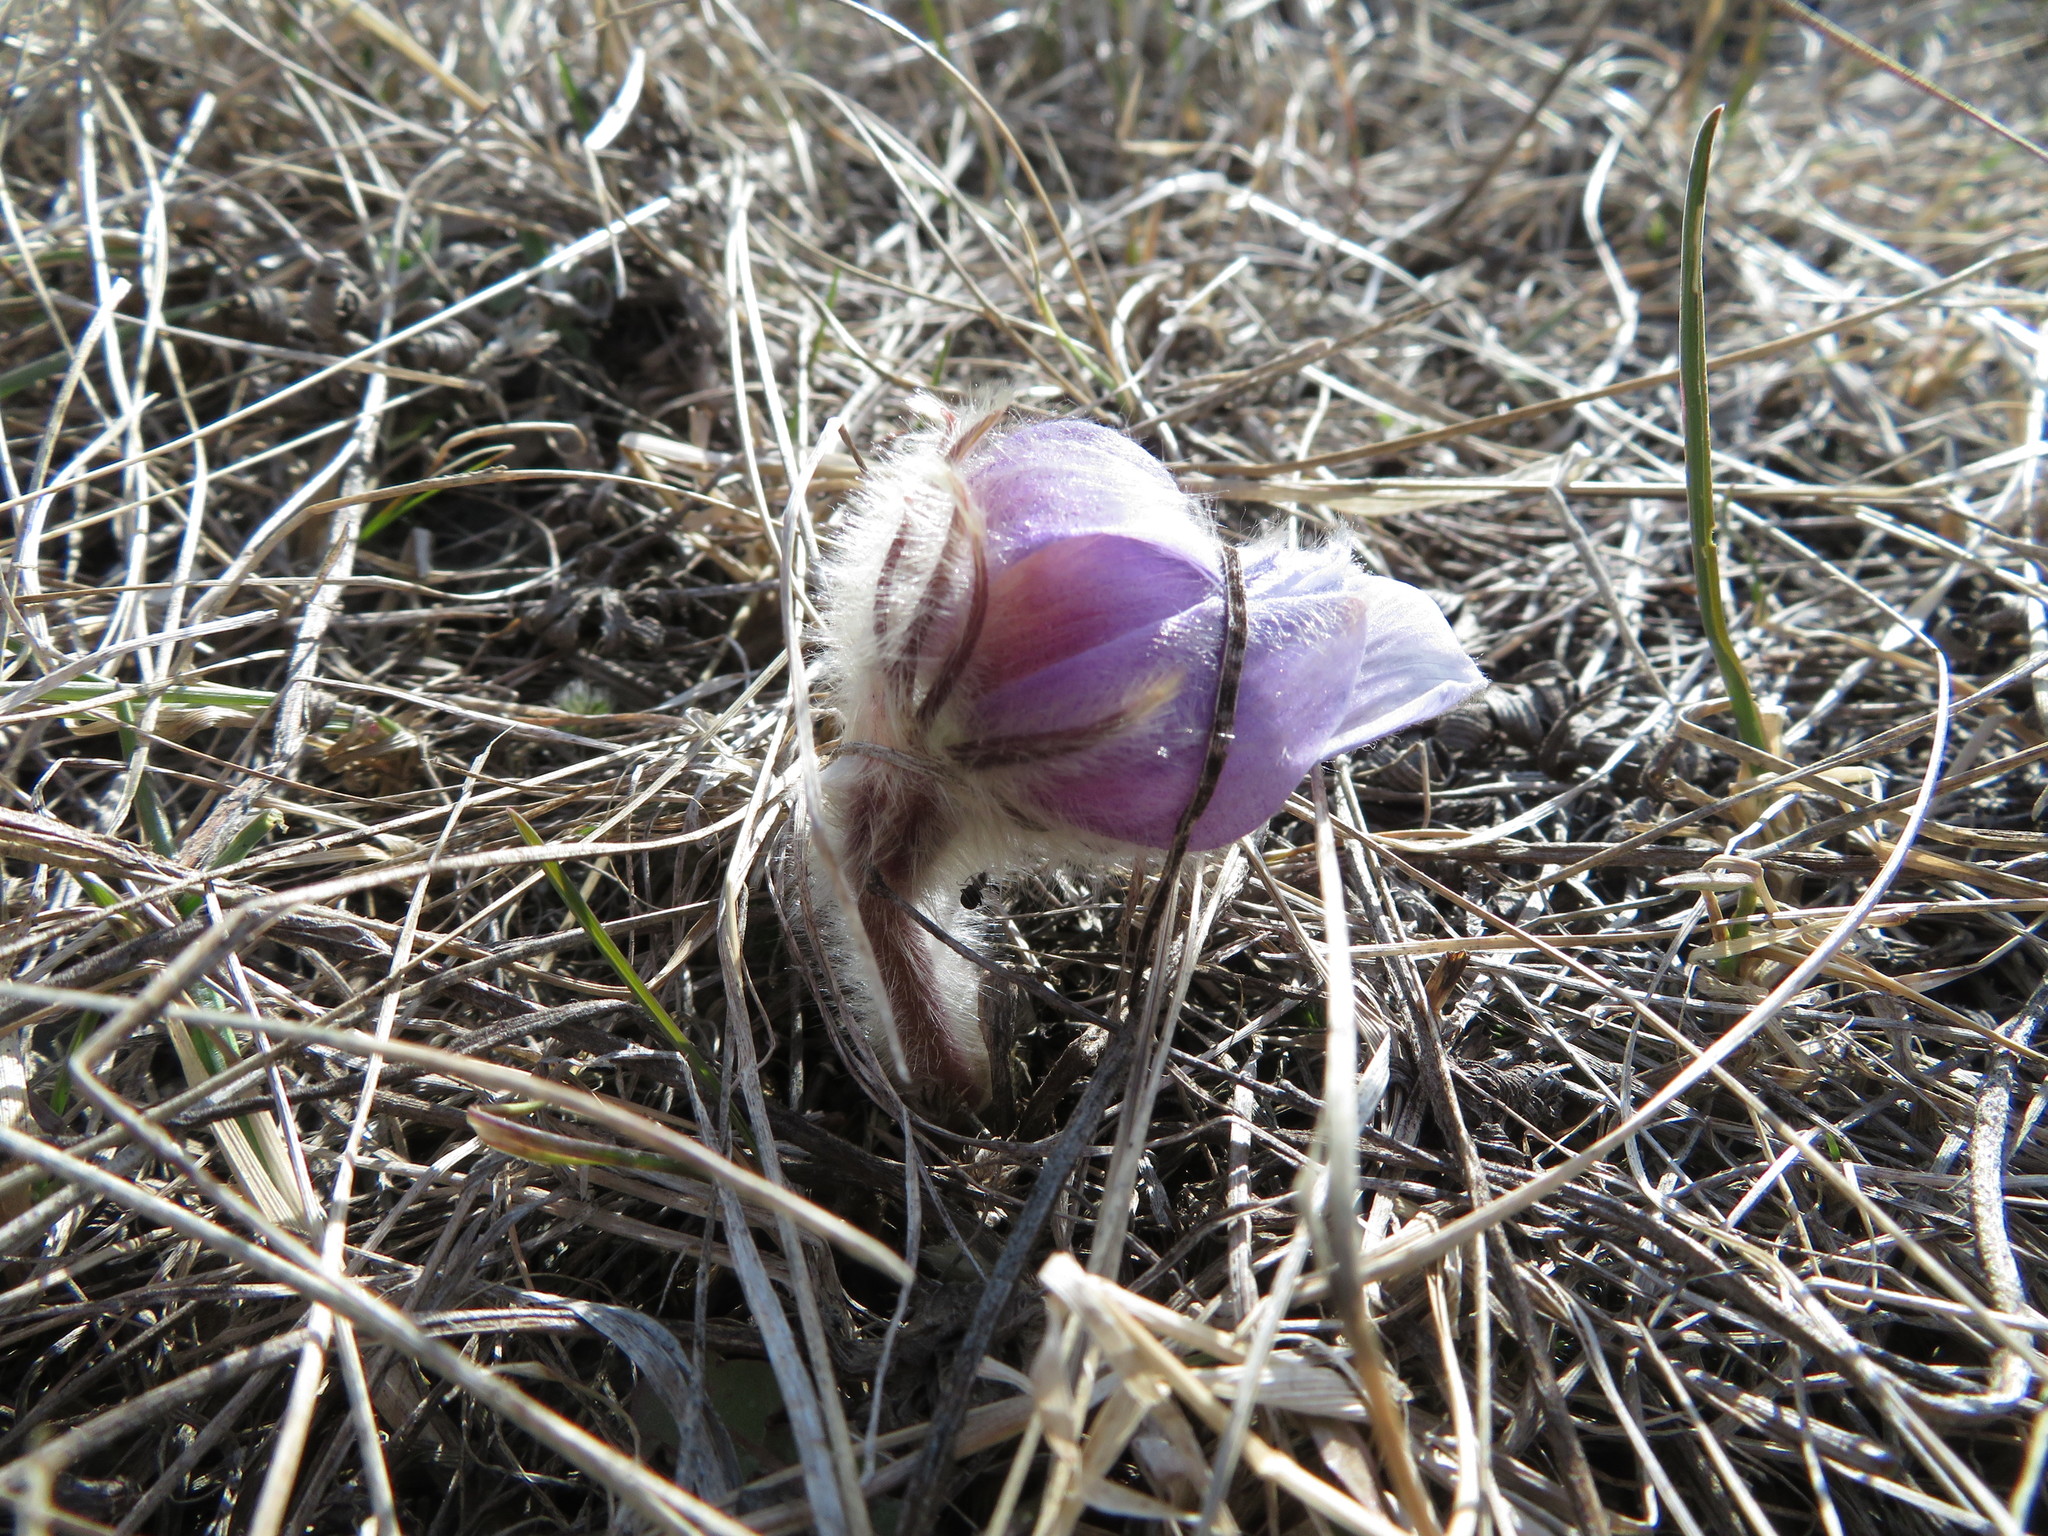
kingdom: Plantae
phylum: Tracheophyta
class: Magnoliopsida
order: Ranunculales
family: Ranunculaceae
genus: Pulsatilla
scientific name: Pulsatilla nuttalliana
